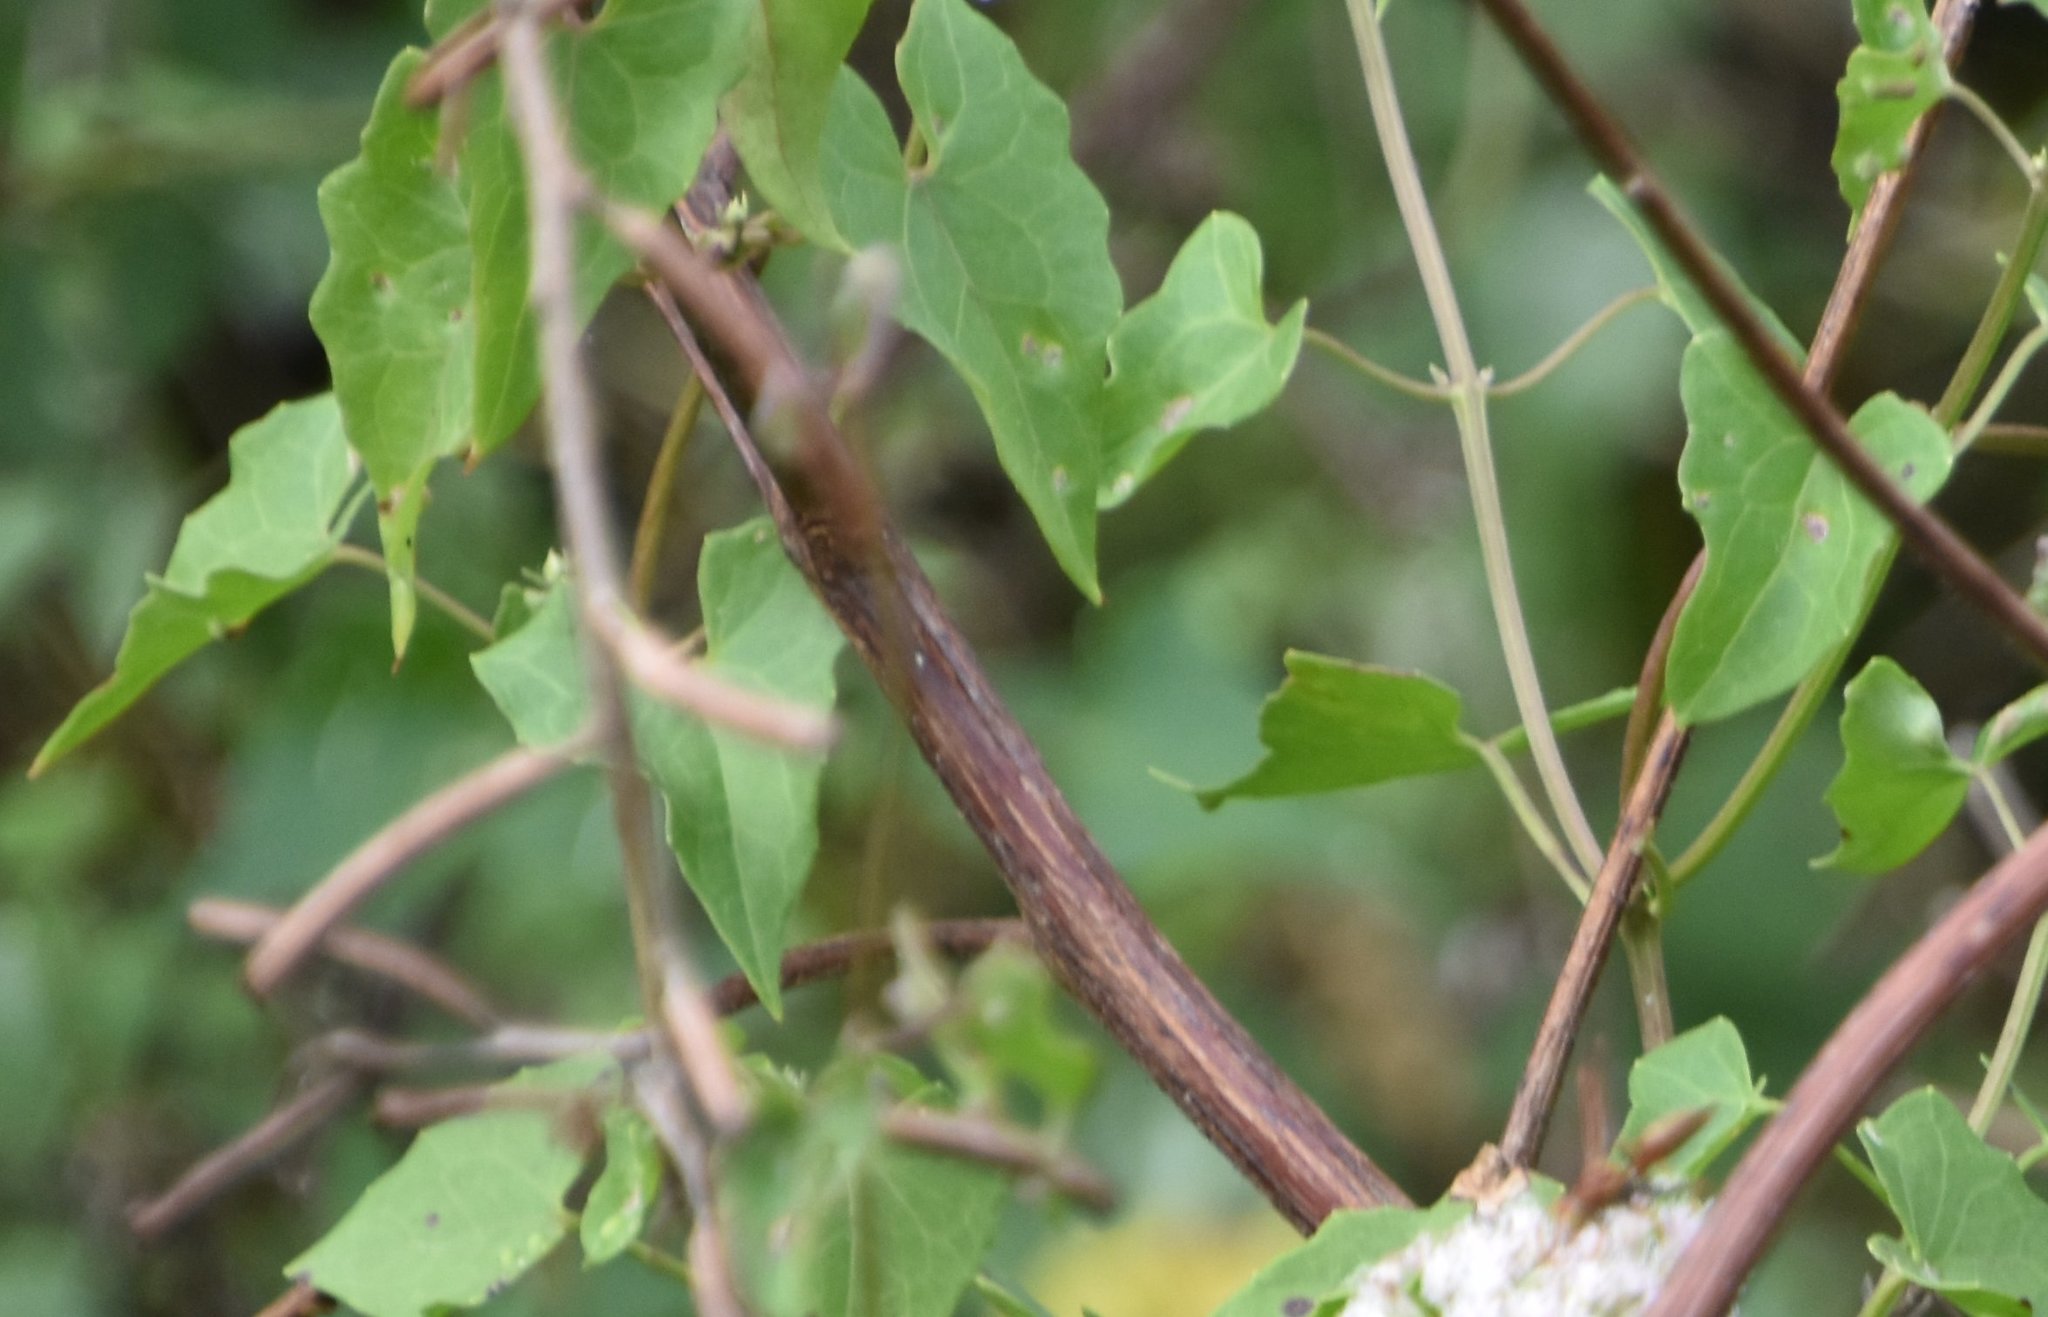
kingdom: Plantae
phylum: Tracheophyta
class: Magnoliopsida
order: Asterales
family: Asteraceae
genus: Mikania
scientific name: Mikania scandens
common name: Climbing hempvine
